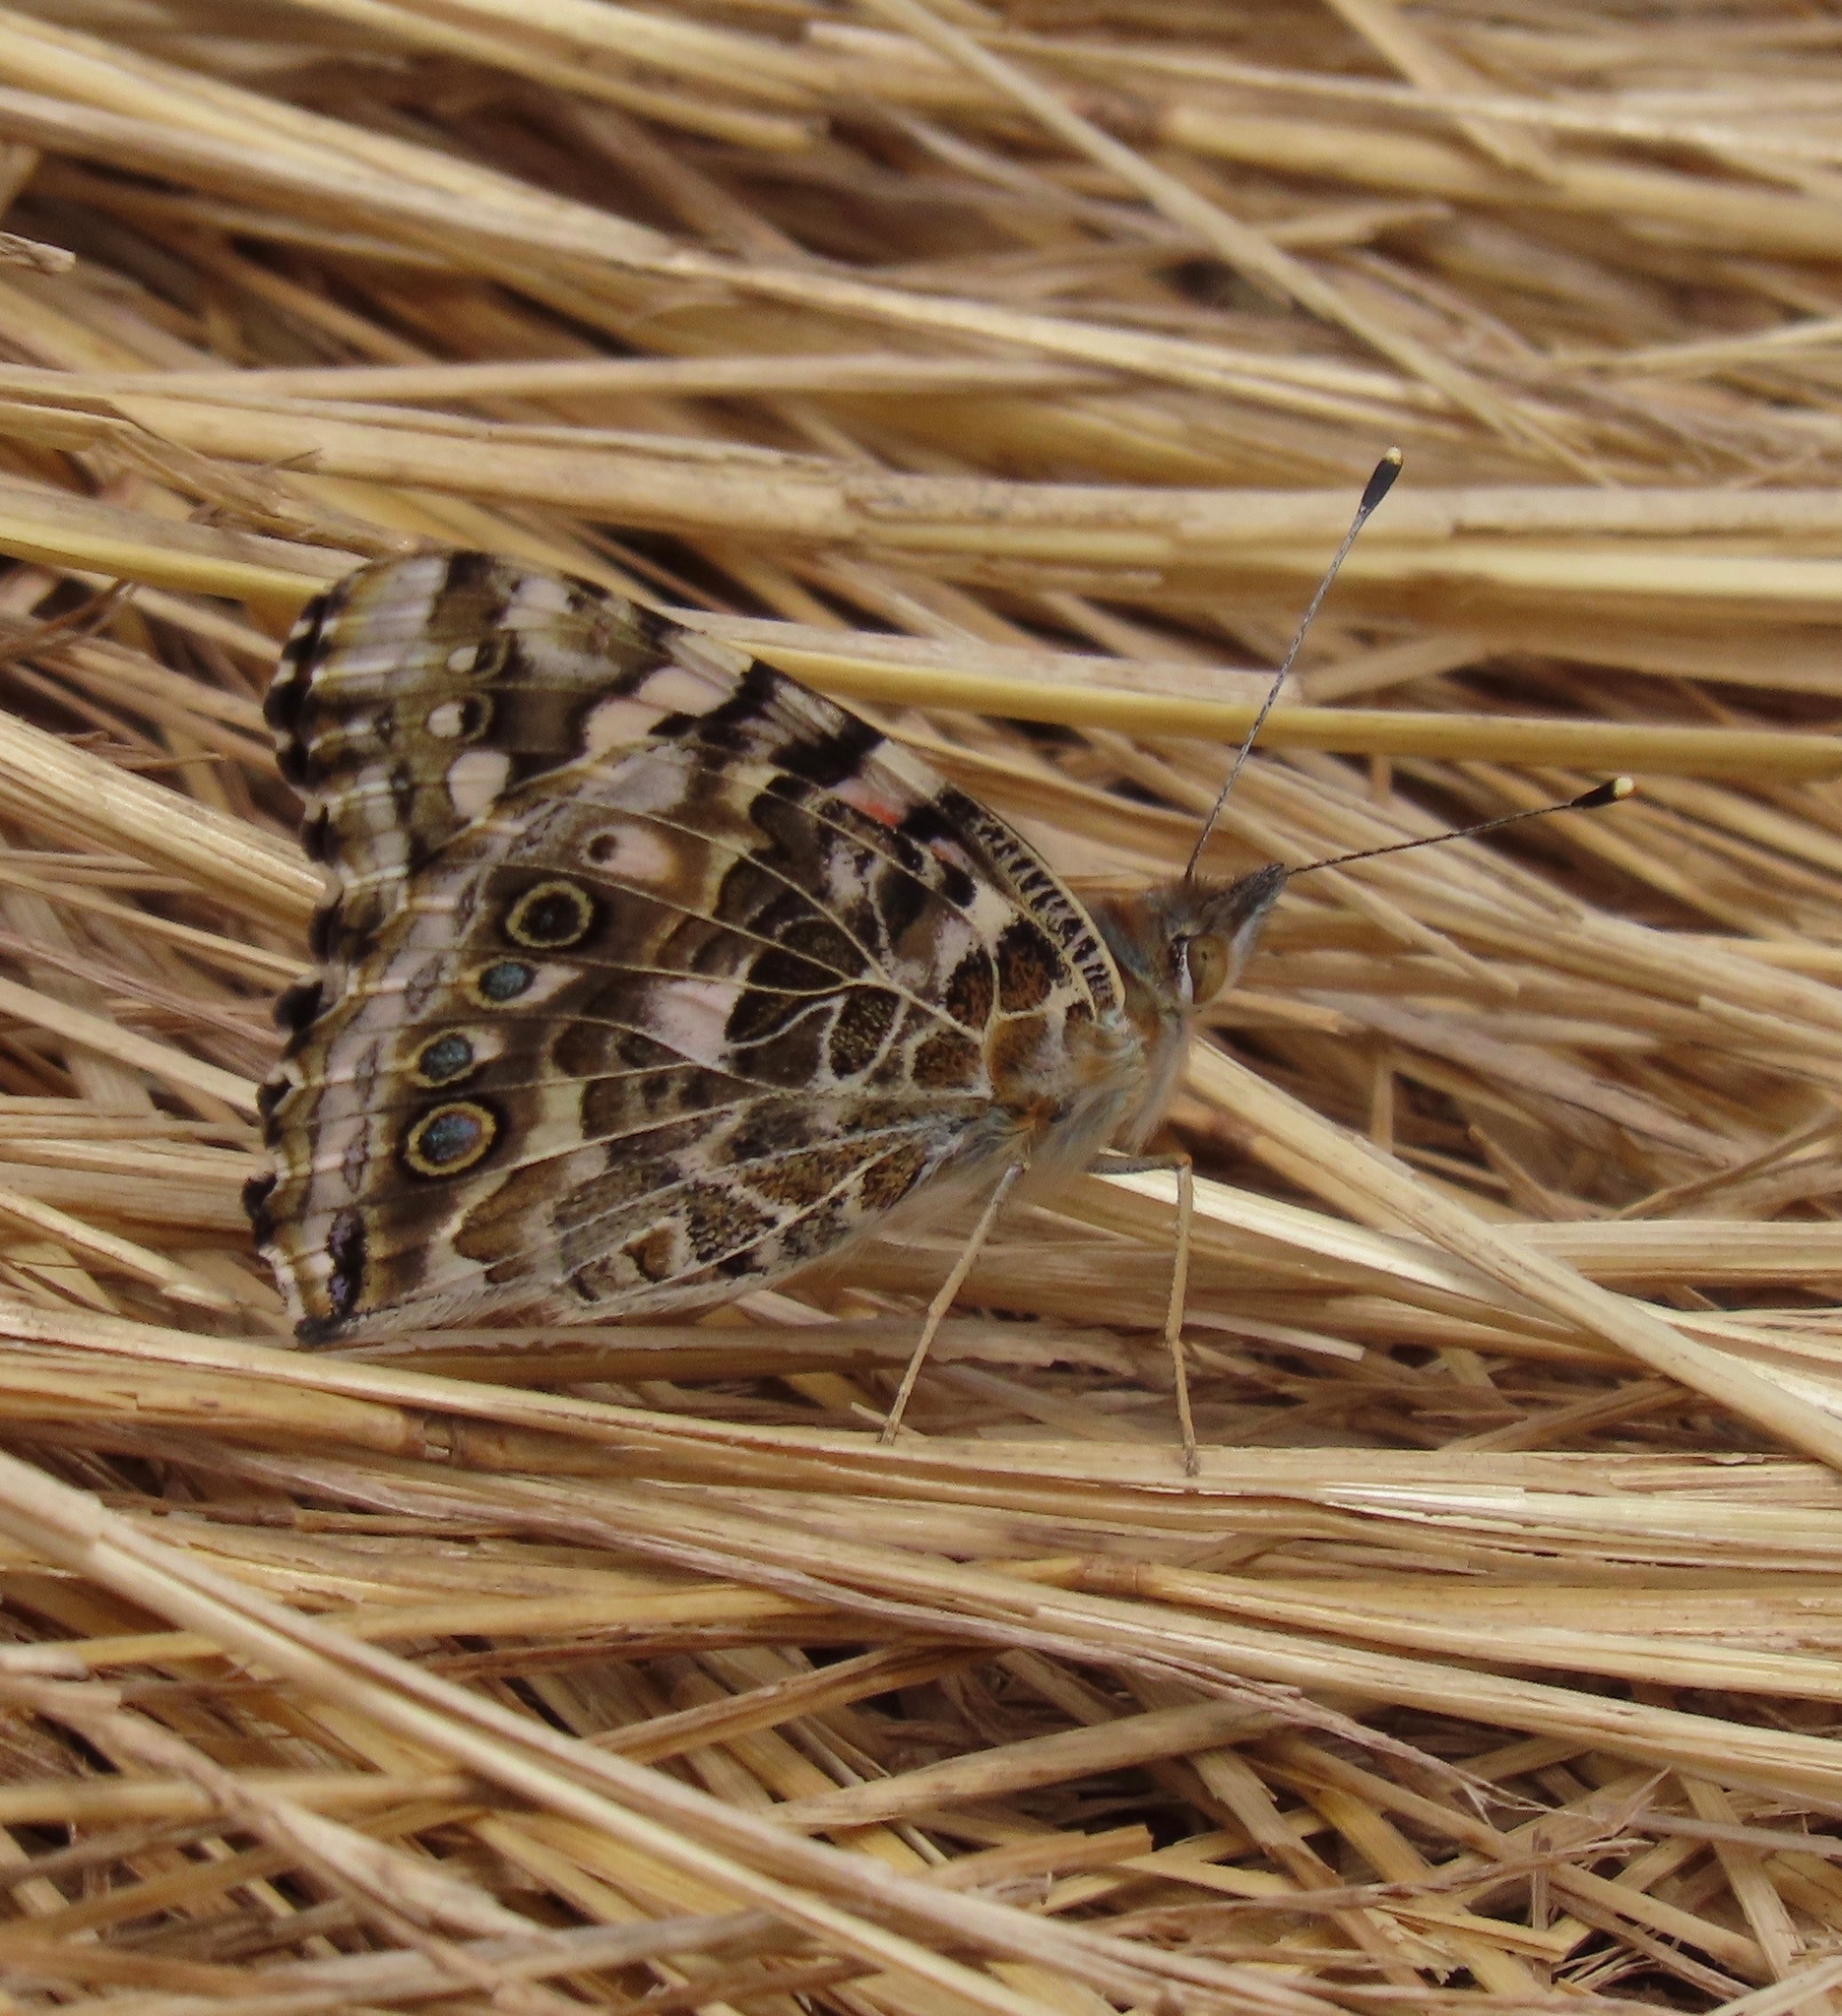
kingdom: Animalia
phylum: Arthropoda
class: Insecta
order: Lepidoptera
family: Nymphalidae
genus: Vanessa
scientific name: Vanessa cardui
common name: Painted lady
